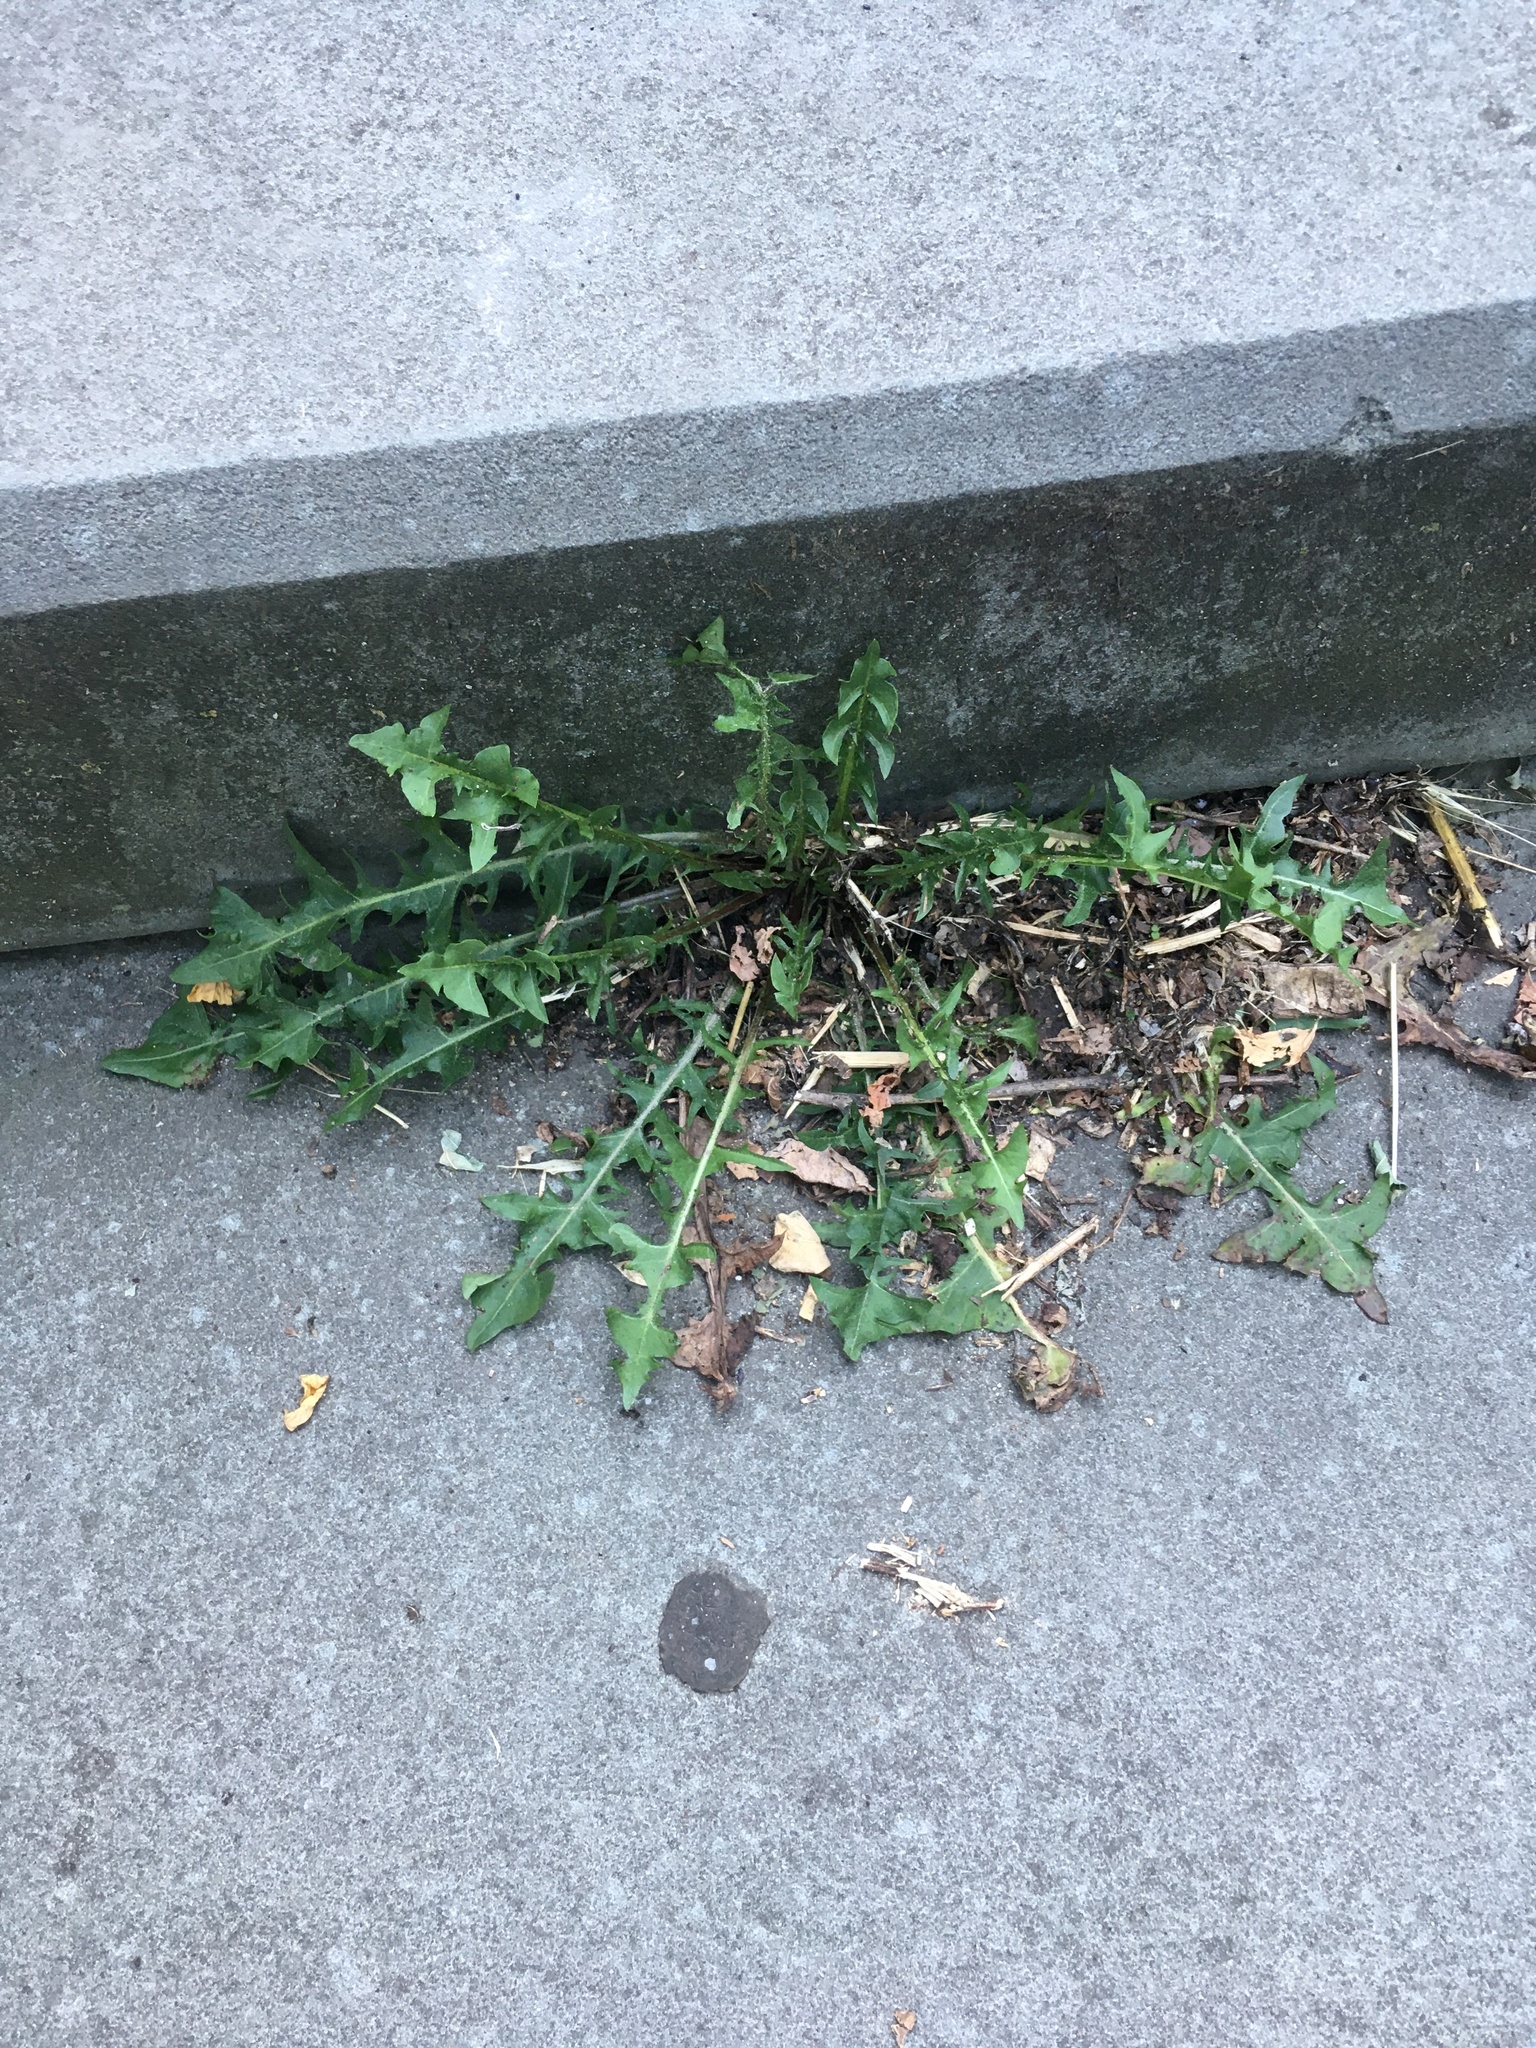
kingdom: Plantae
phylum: Tracheophyta
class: Magnoliopsida
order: Asterales
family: Asteraceae
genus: Taraxacum
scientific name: Taraxacum officinale
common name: Common dandelion
